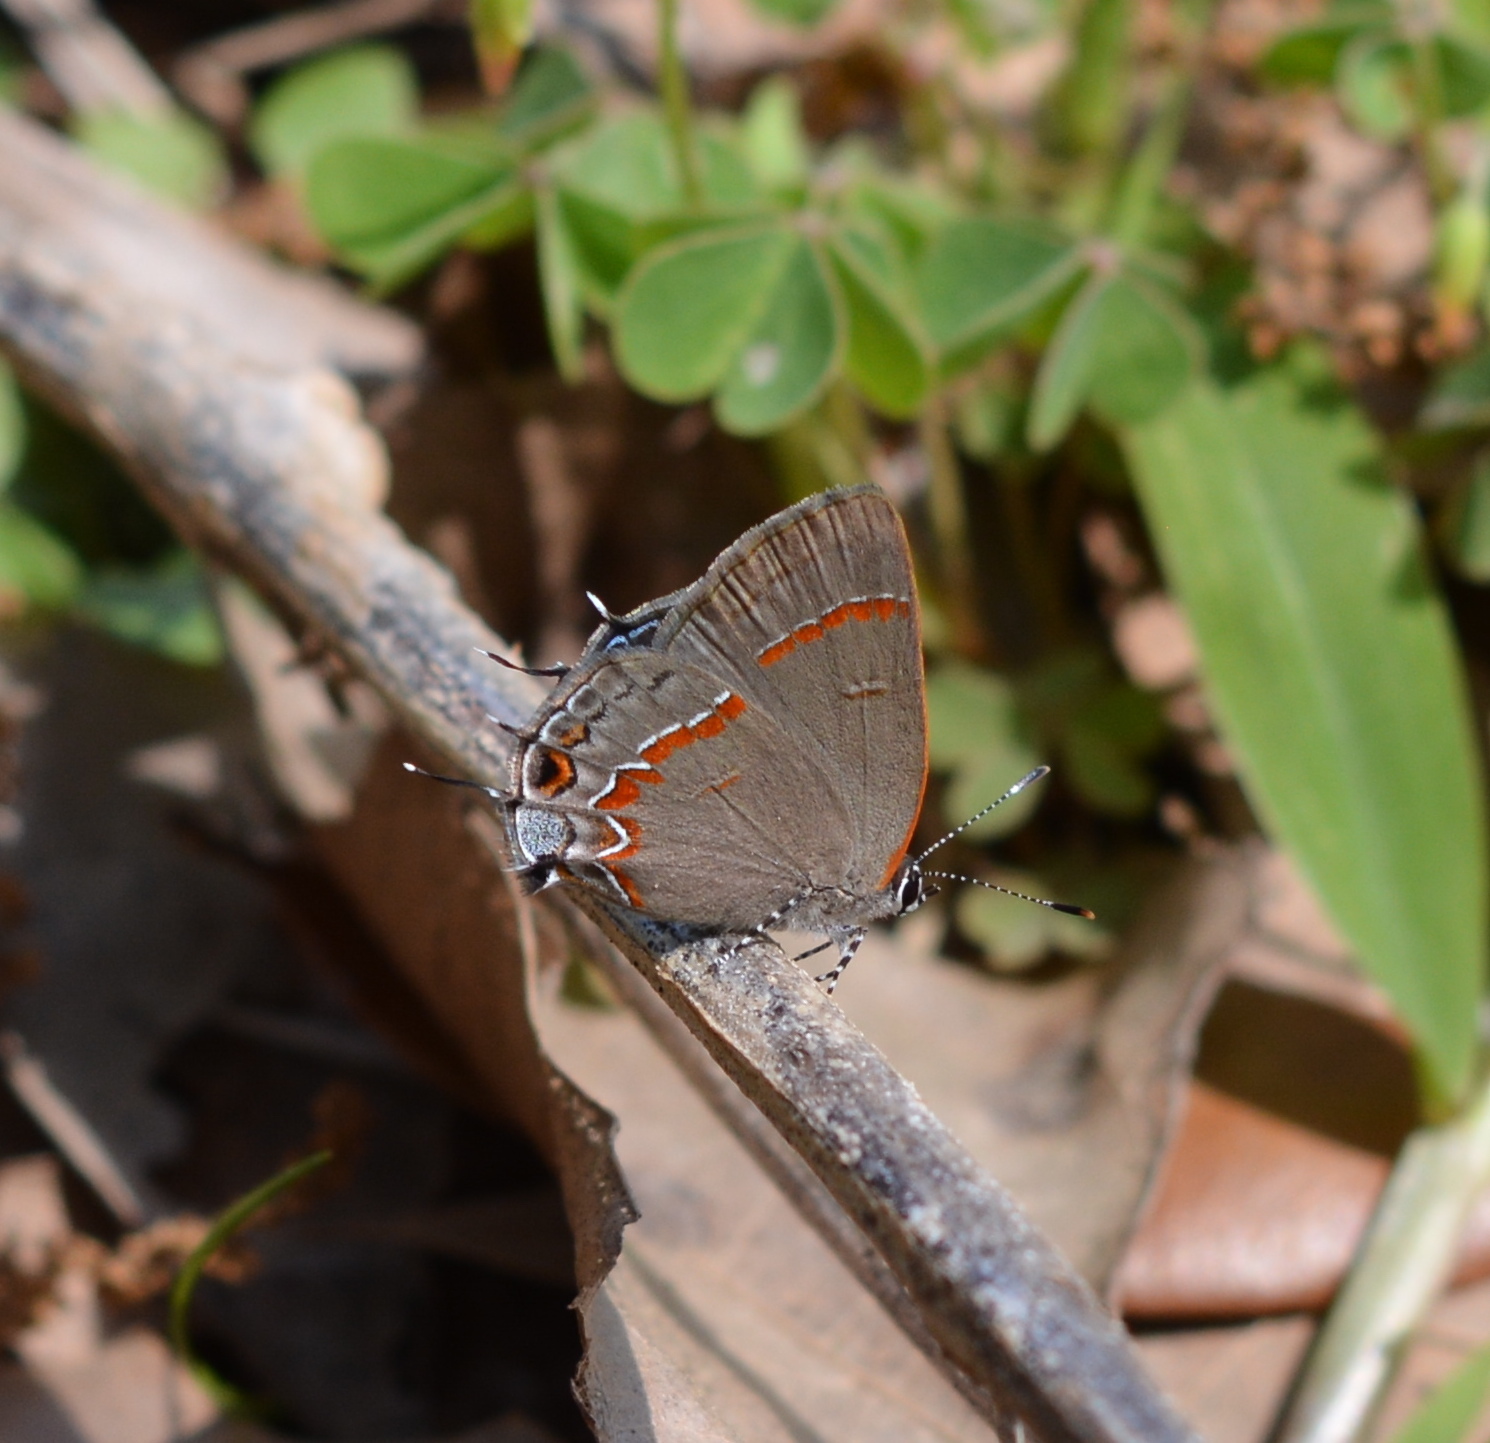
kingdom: Animalia
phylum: Arthropoda
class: Insecta
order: Lepidoptera
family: Lycaenidae
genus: Calycopis
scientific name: Calycopis cecrops
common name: Red-banded hairstreak
